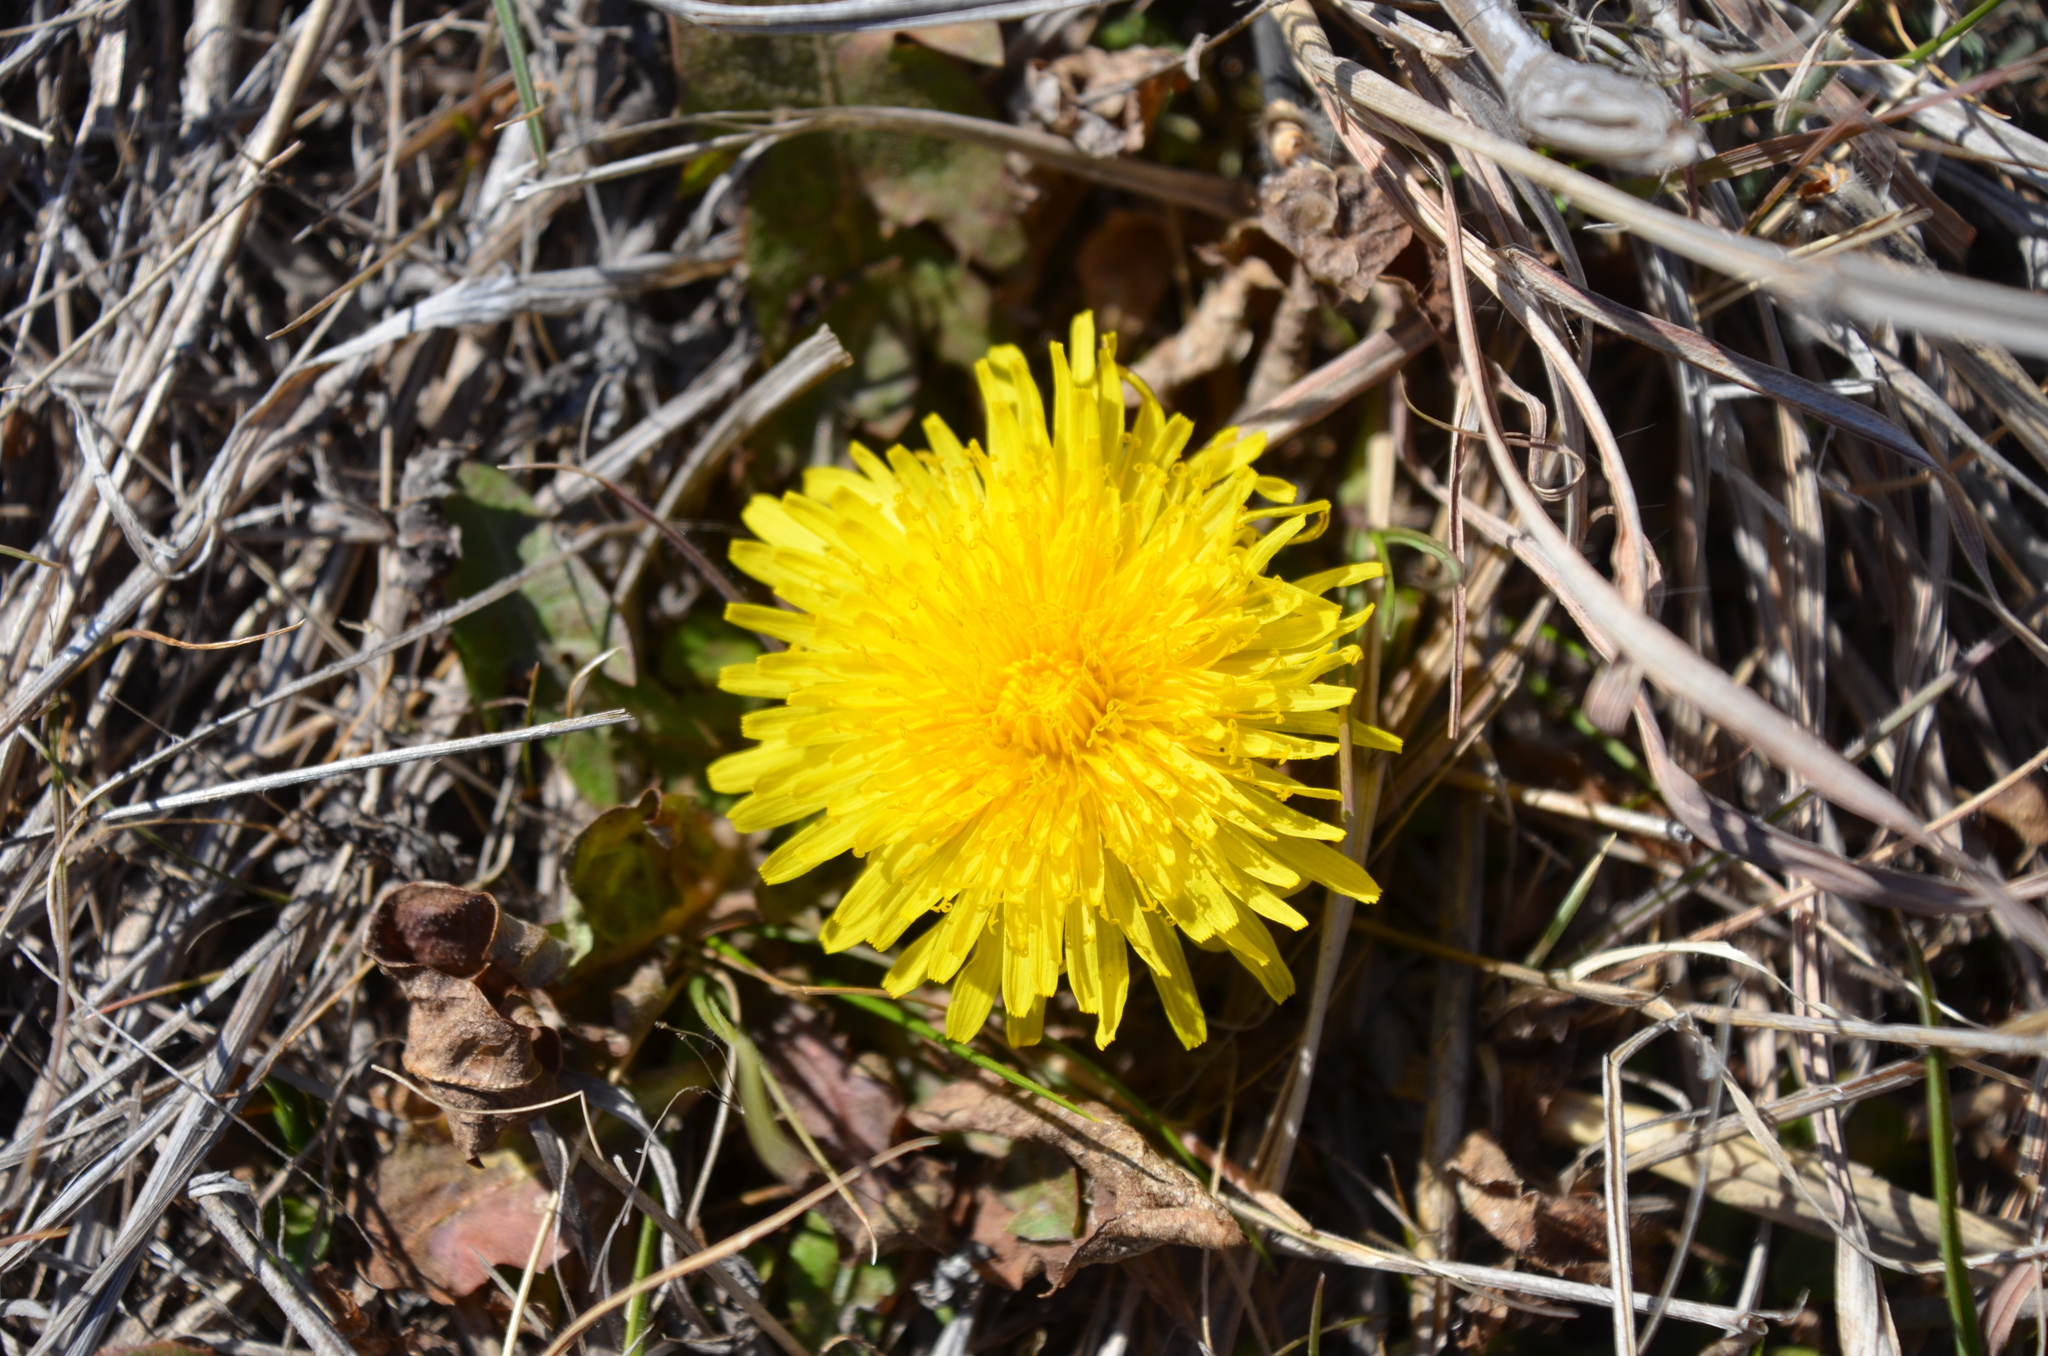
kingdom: Plantae
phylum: Tracheophyta
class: Magnoliopsida
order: Asterales
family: Asteraceae
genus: Taraxacum
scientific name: Taraxacum officinale
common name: Common dandelion
